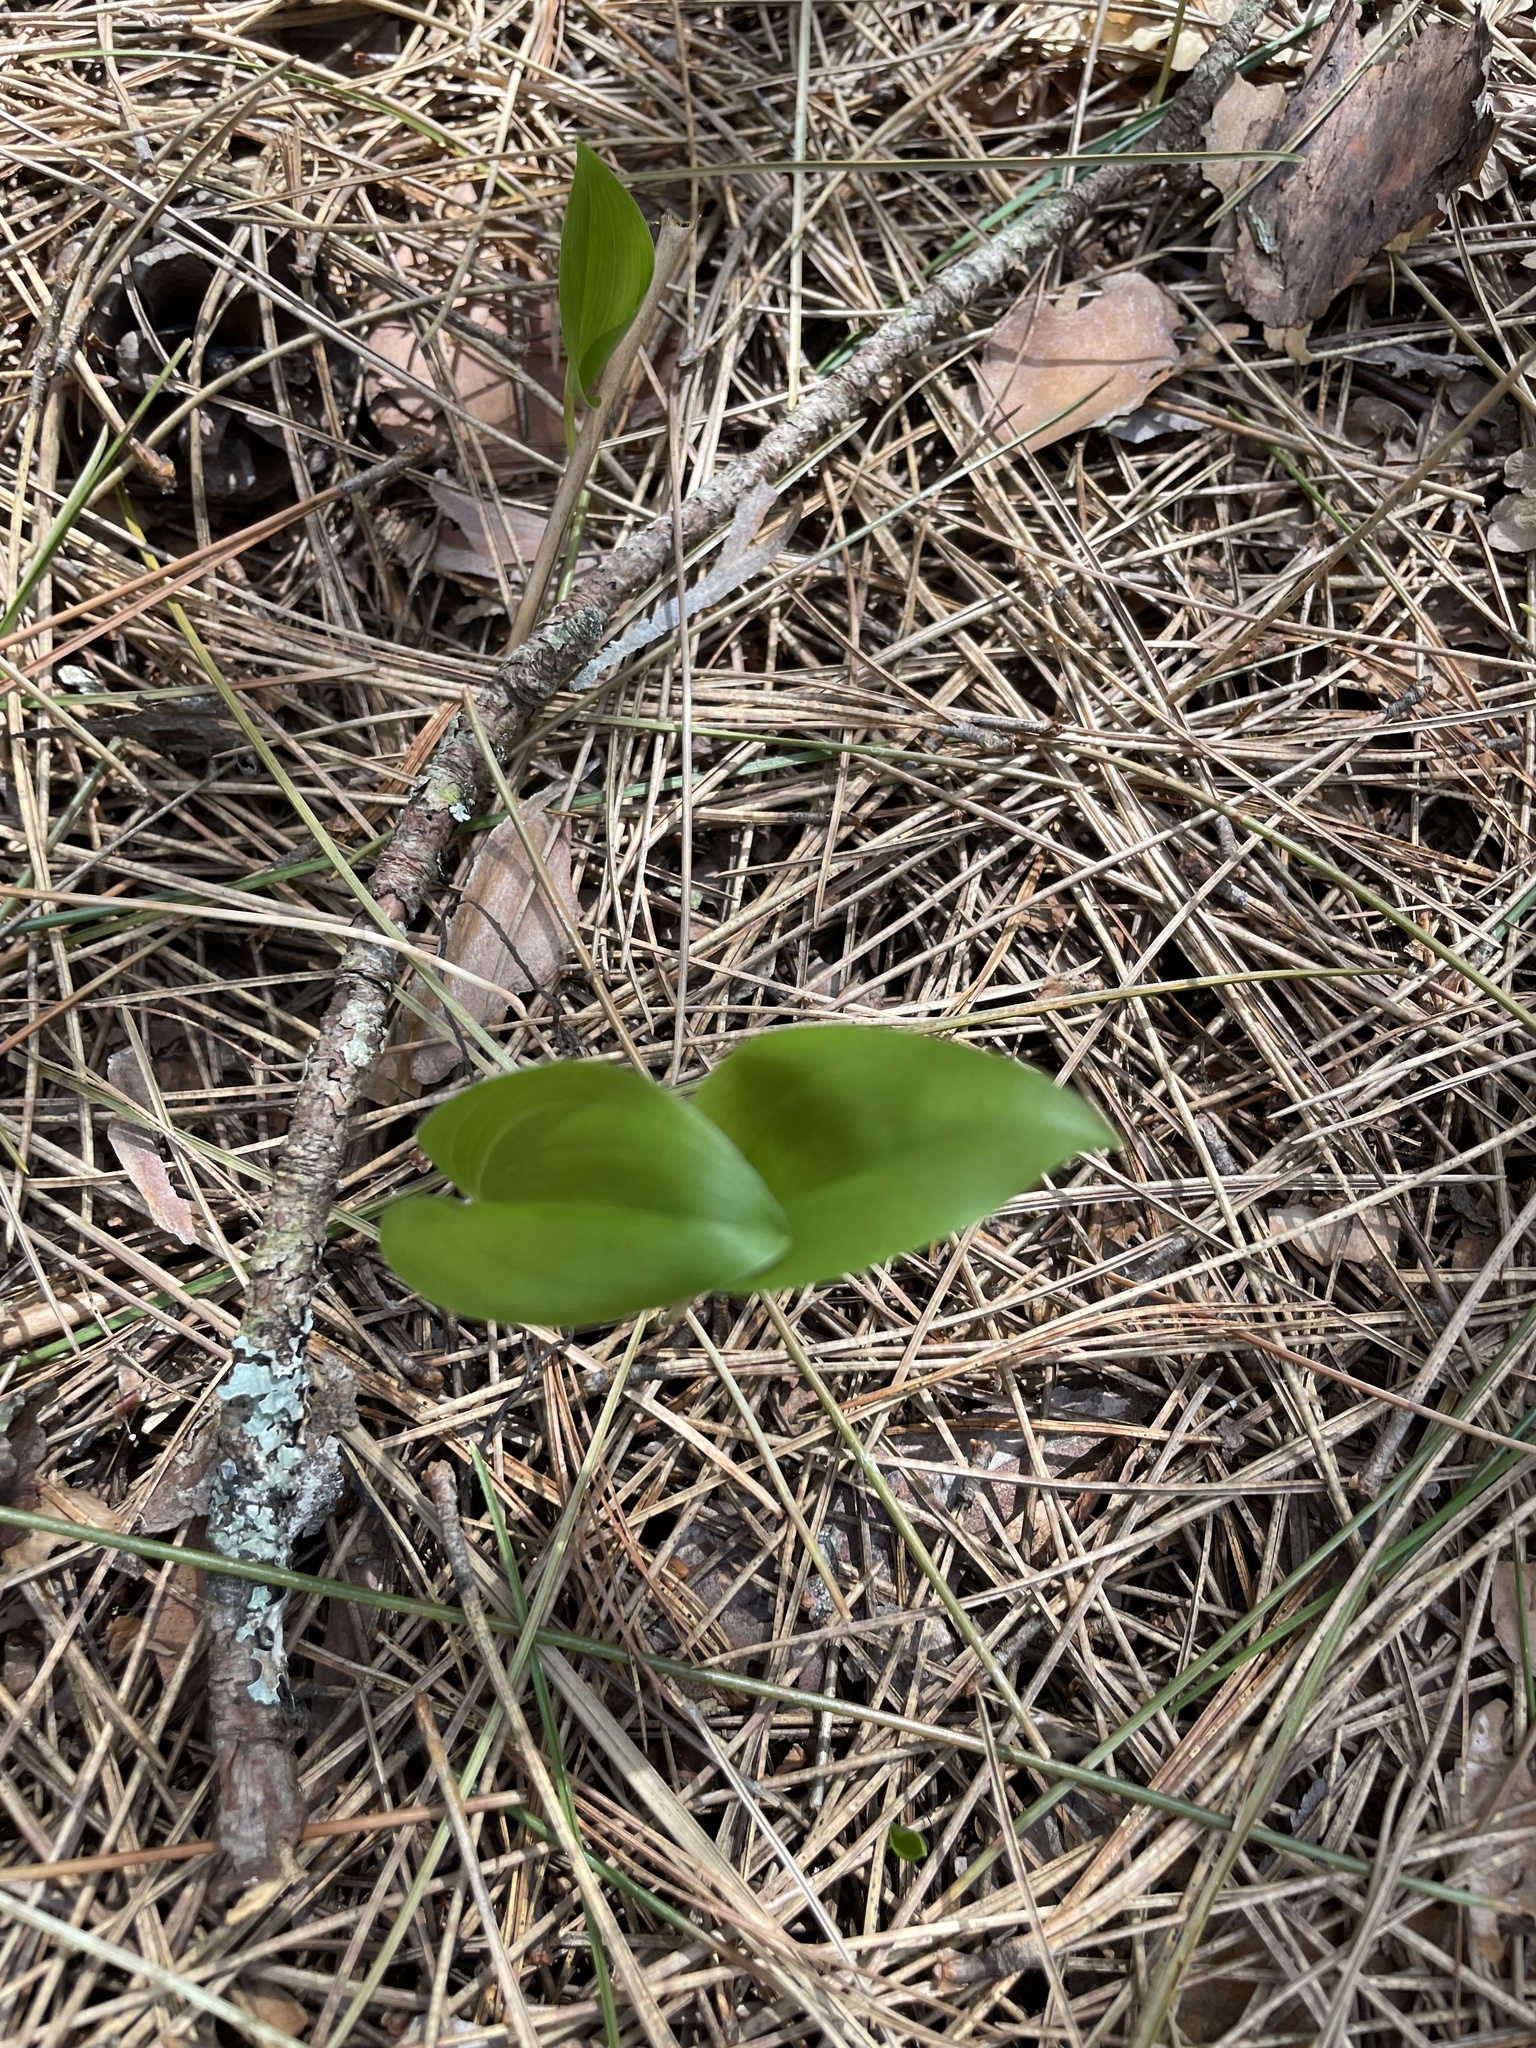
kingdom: Plantae
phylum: Tracheophyta
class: Liliopsida
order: Asparagales
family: Asparagaceae
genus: Maianthemum
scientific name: Maianthemum canadense
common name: False lily-of-the-valley
